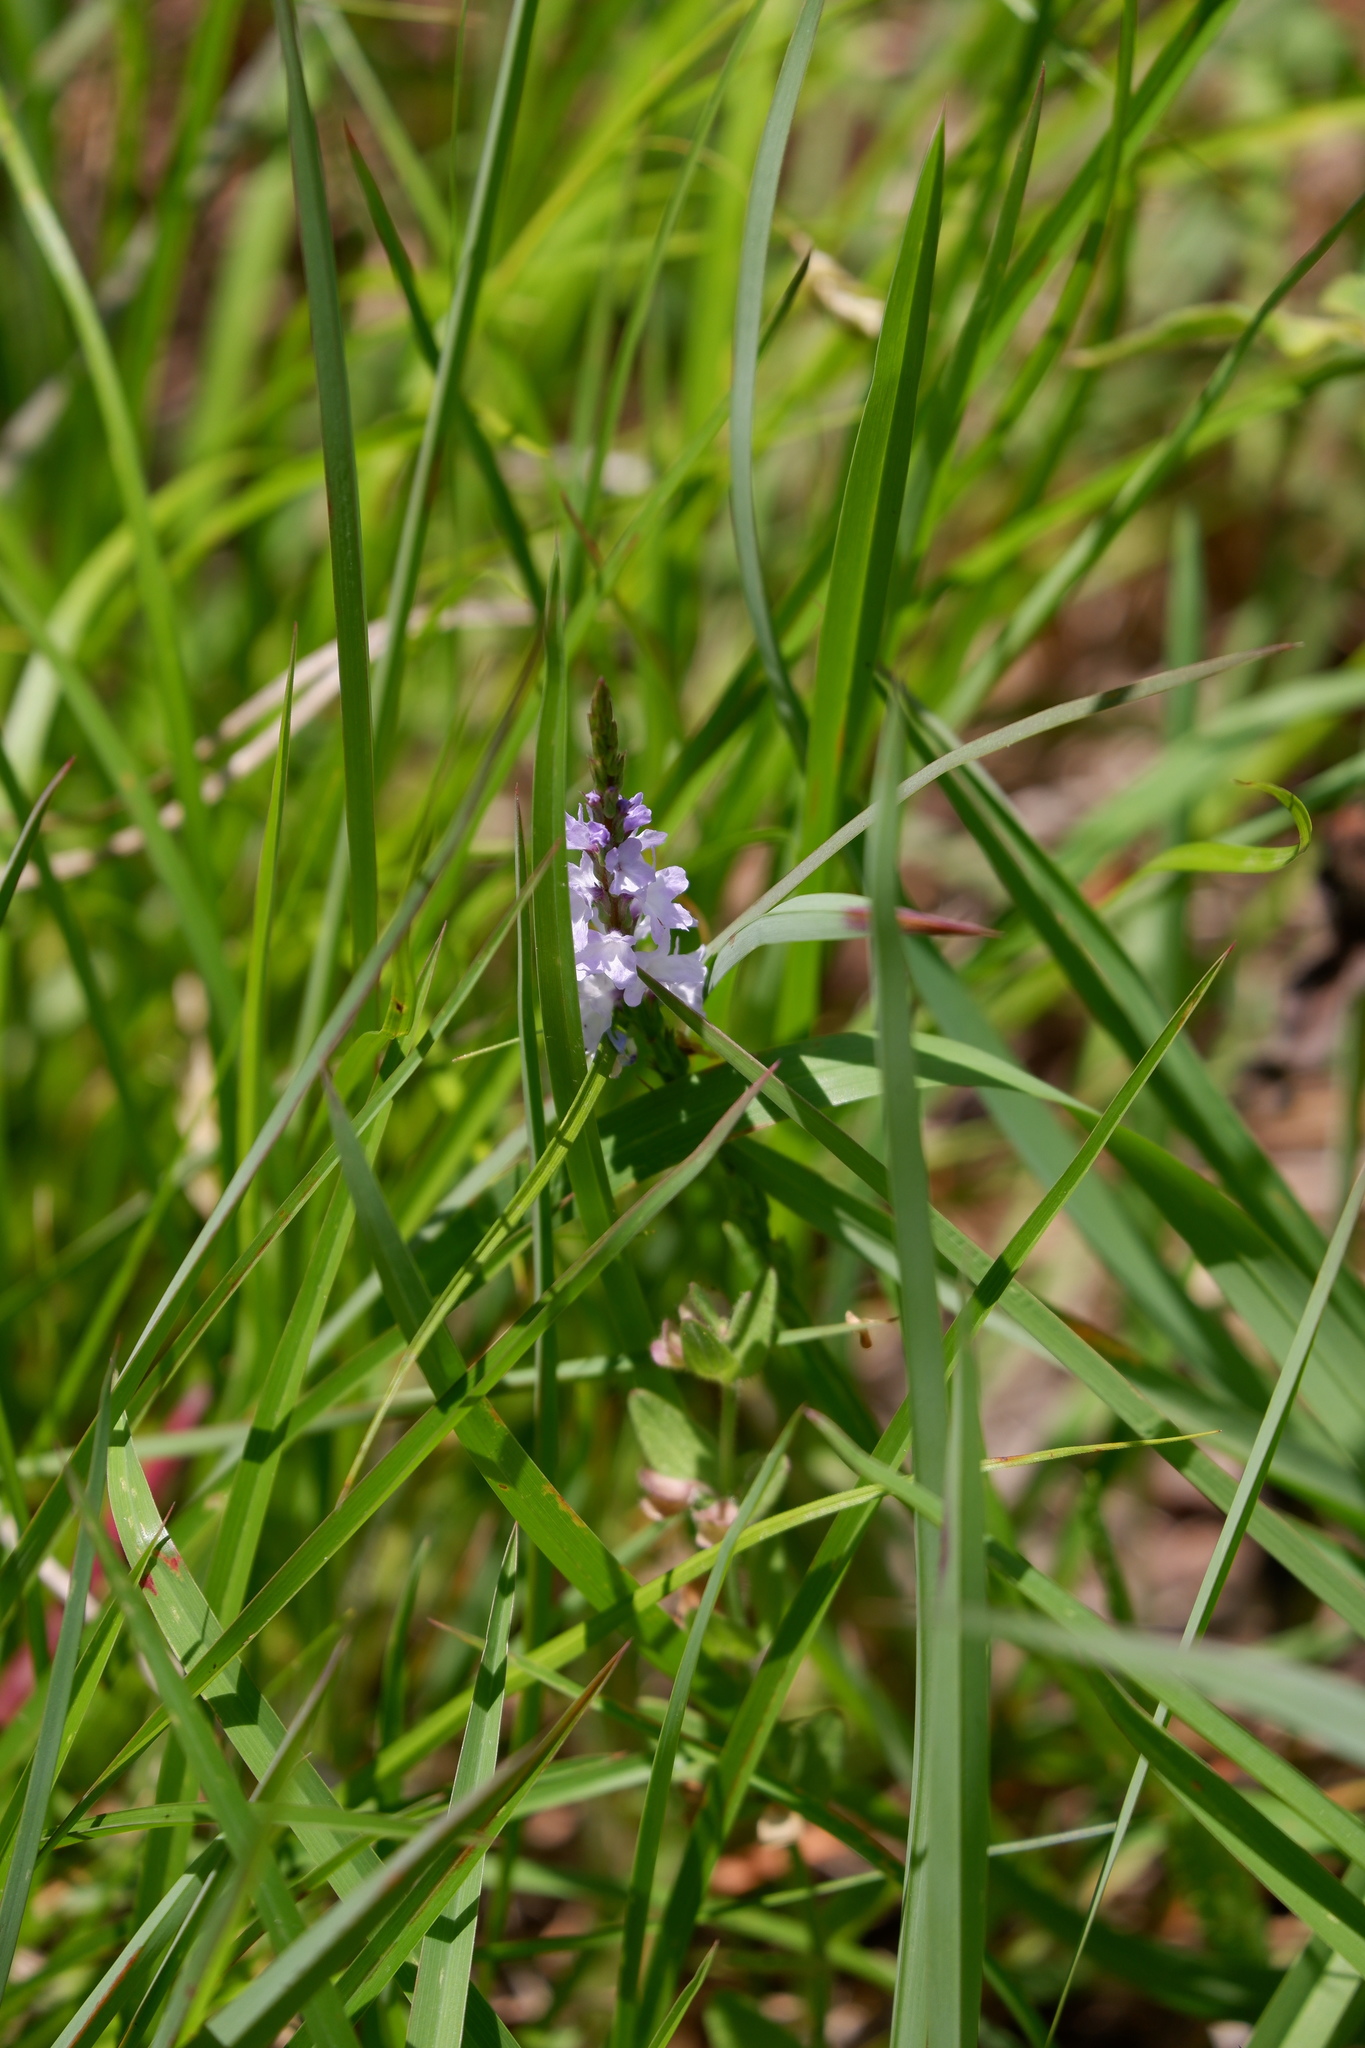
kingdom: Plantae
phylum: Tracheophyta
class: Magnoliopsida
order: Lamiales
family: Verbenaceae
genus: Verbena
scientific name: Verbena simplex
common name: Narrow-leaf vervain
